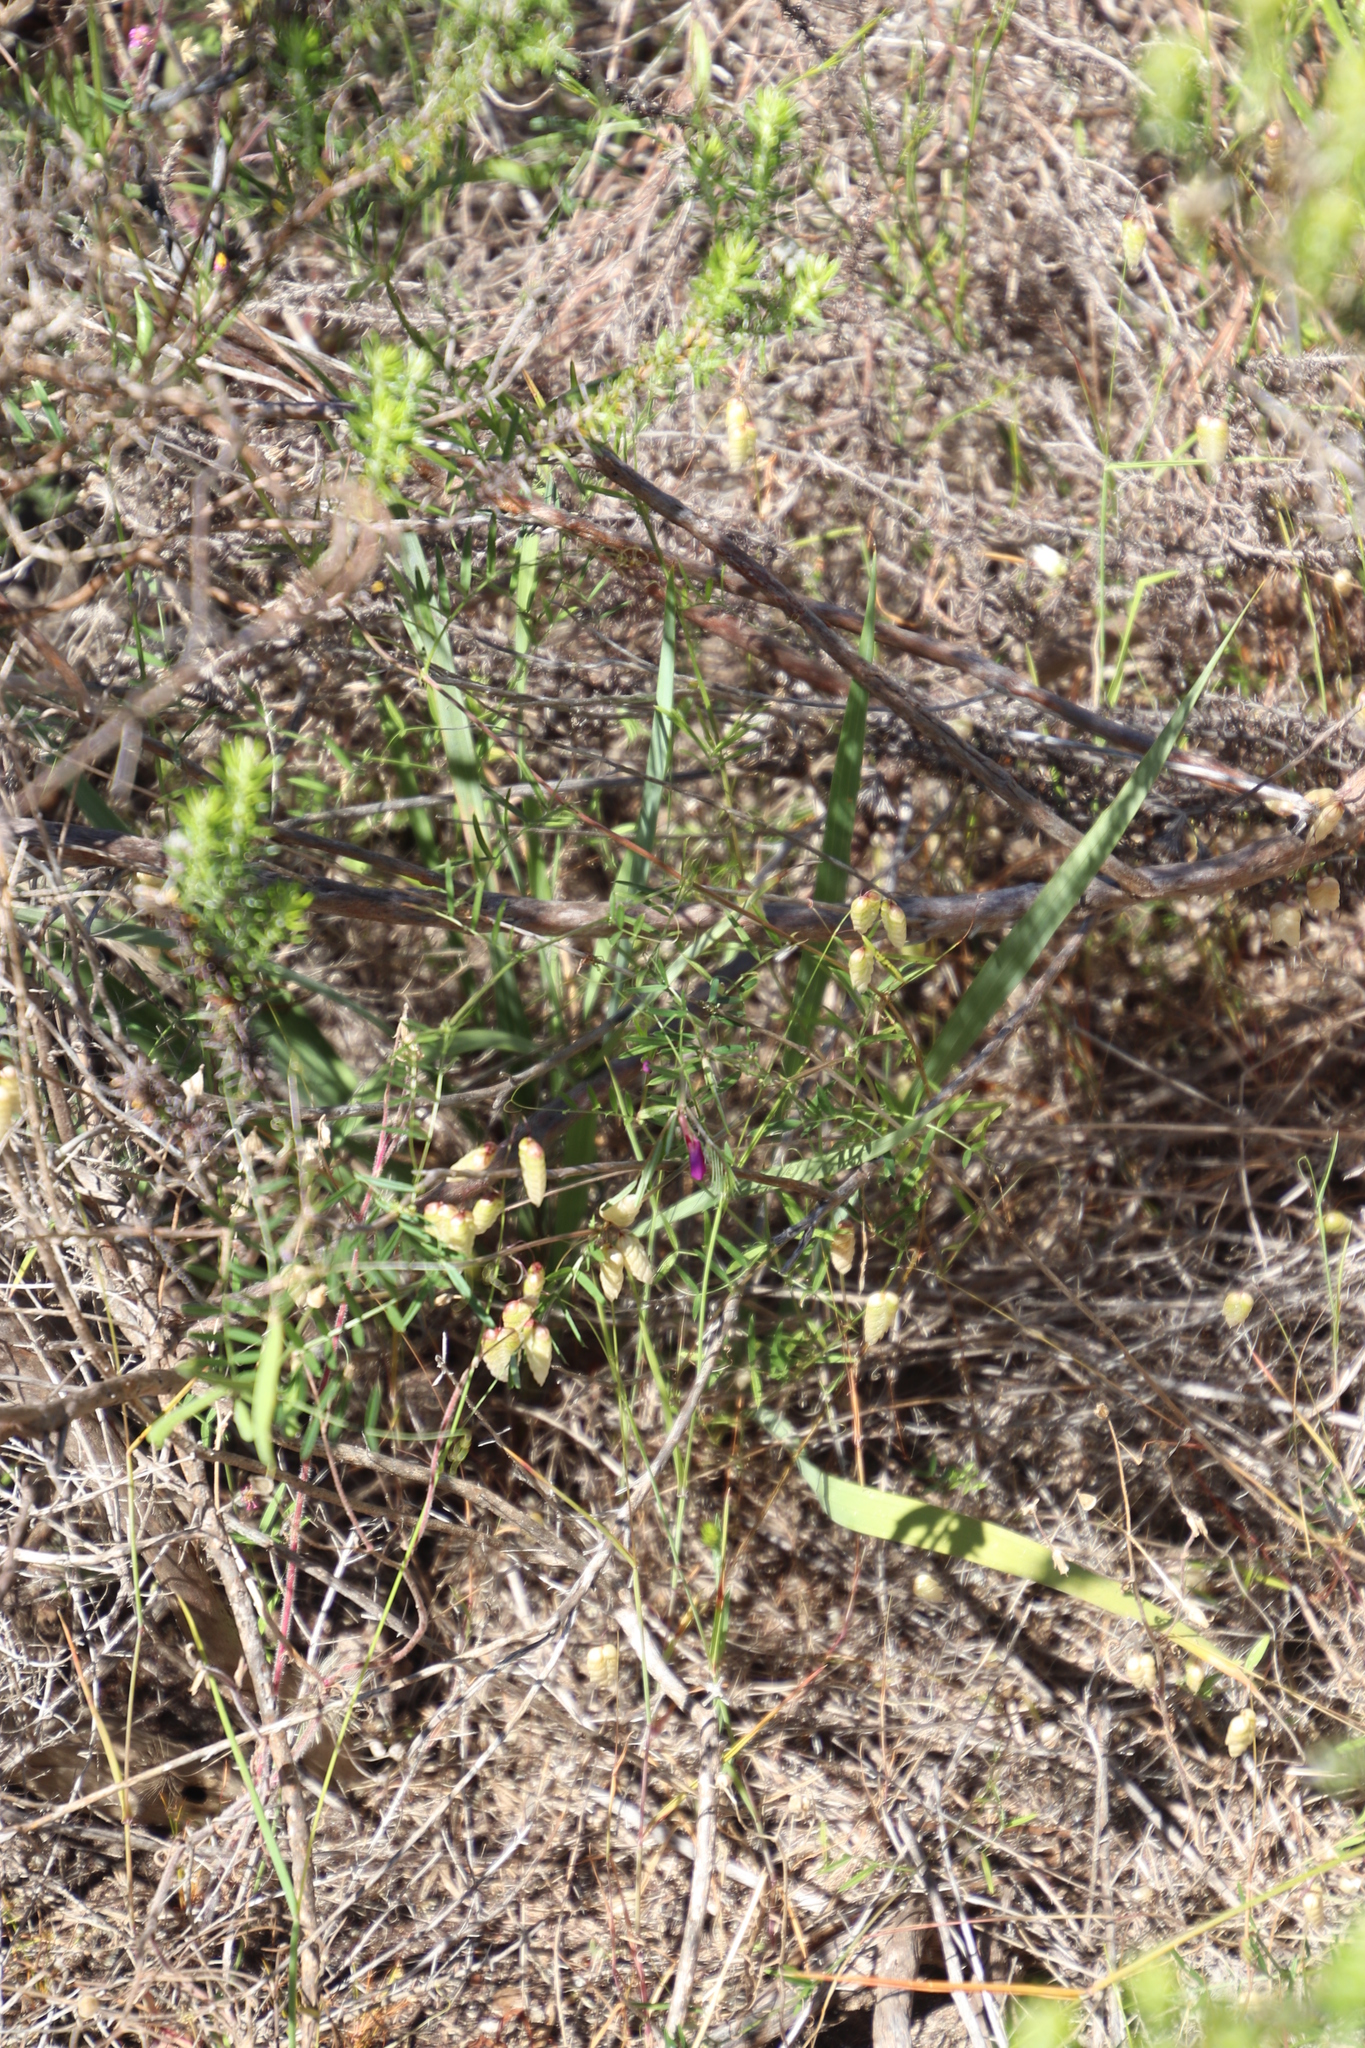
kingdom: Plantae
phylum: Tracheophyta
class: Liliopsida
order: Poales
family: Poaceae
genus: Briza
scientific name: Briza maxima
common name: Big quakinggrass
